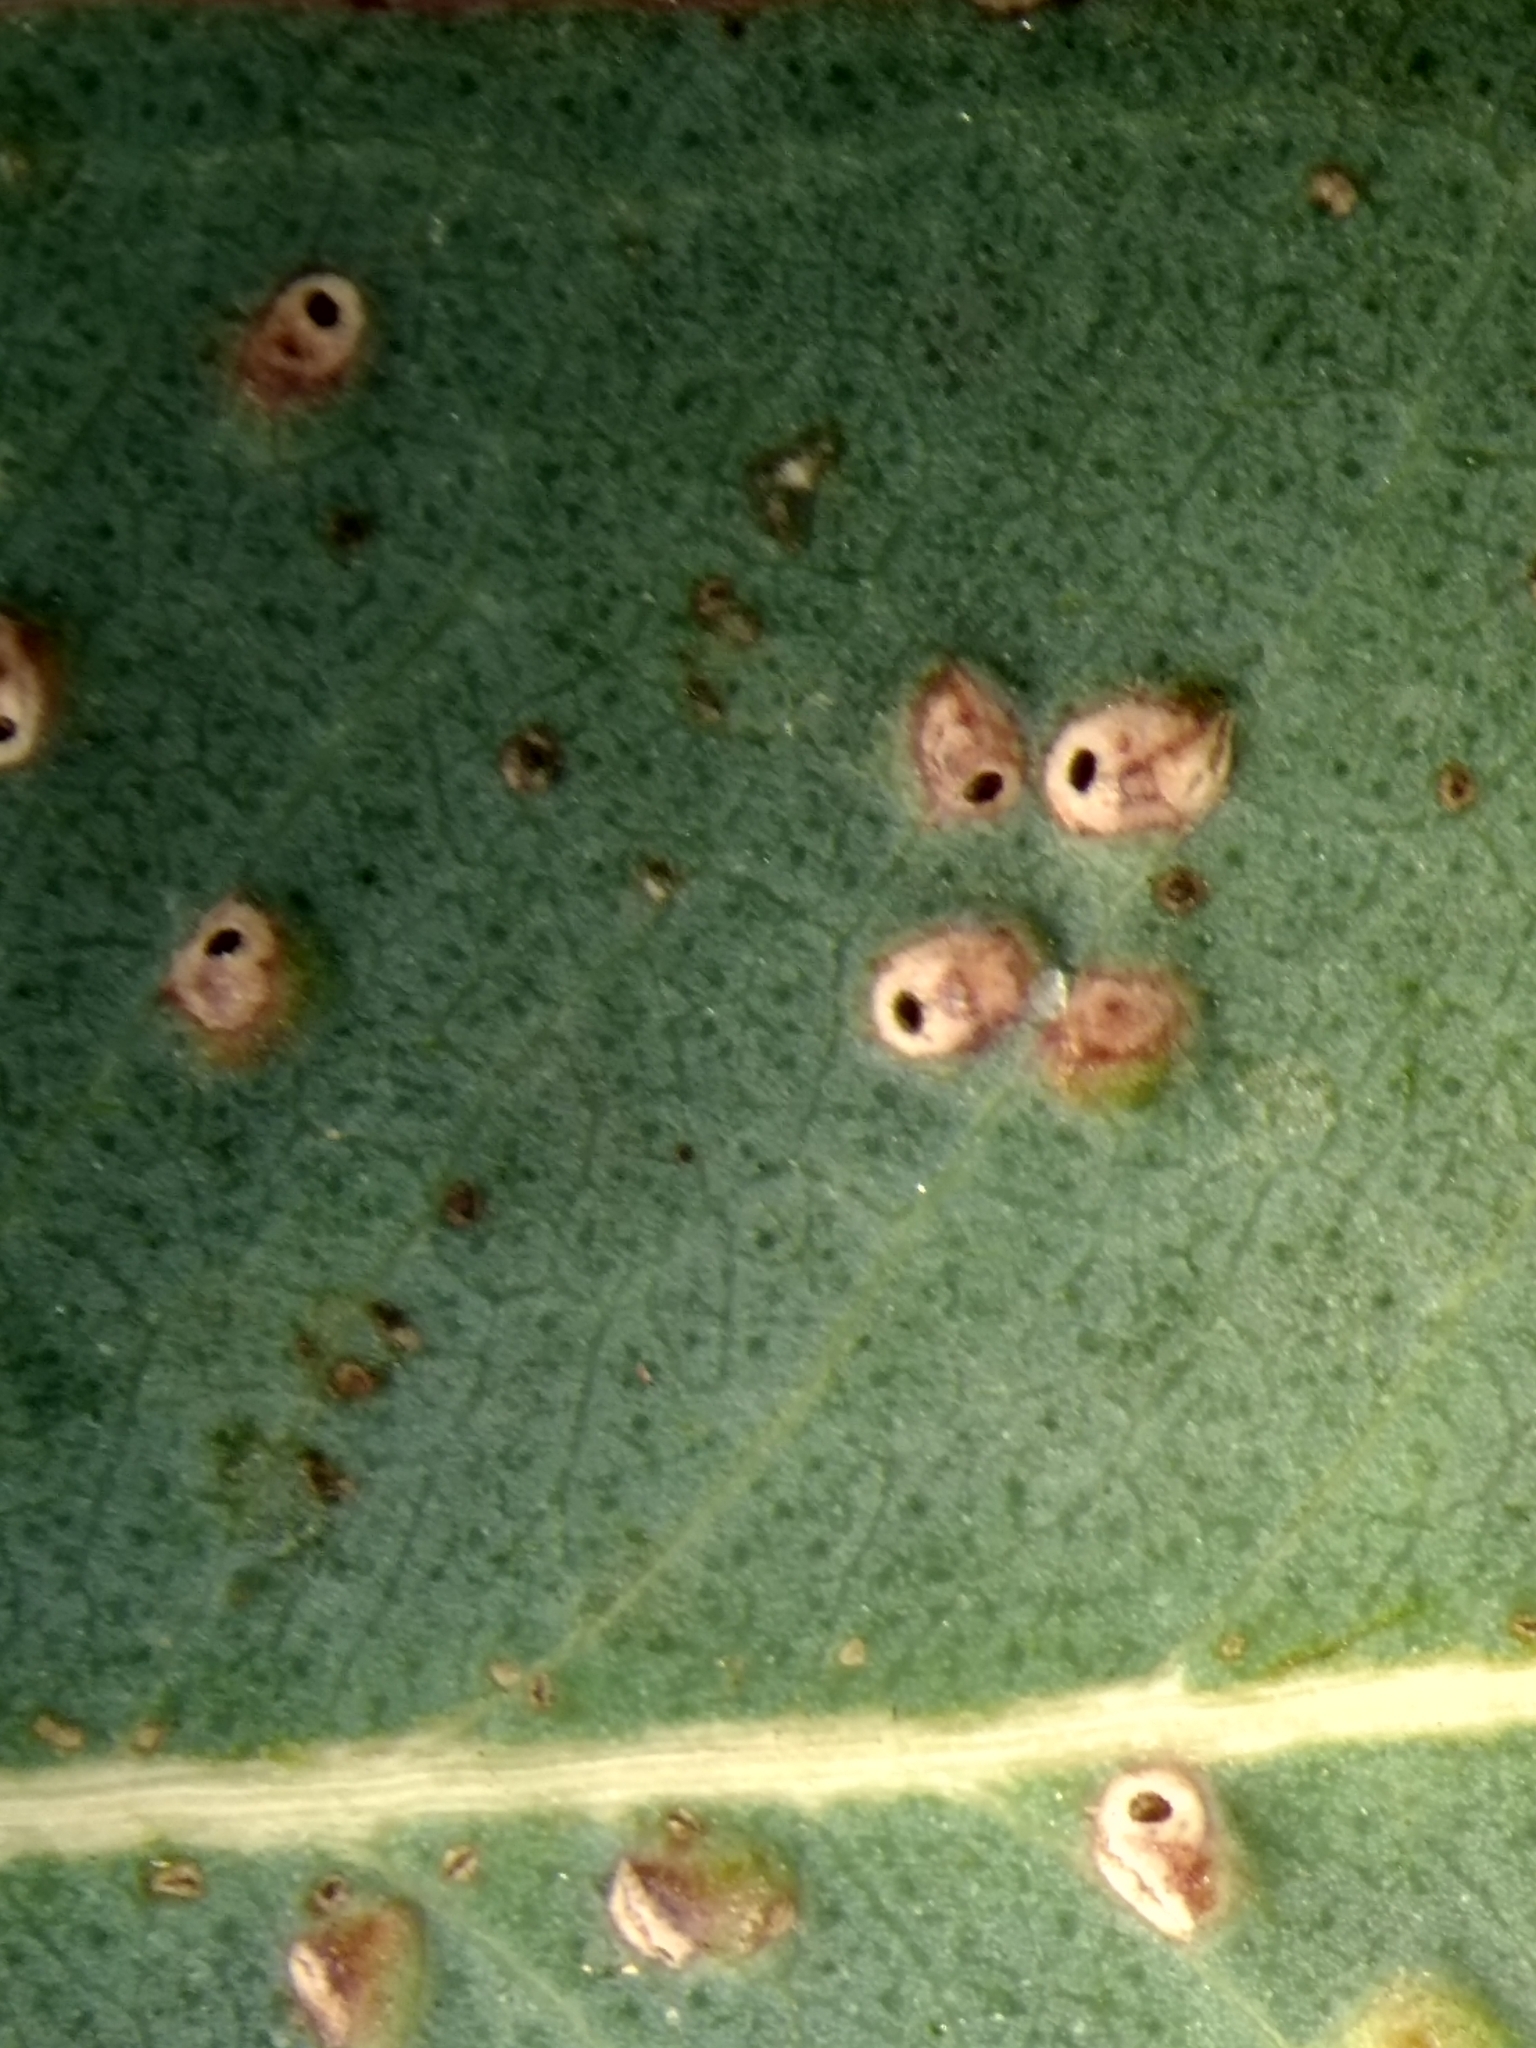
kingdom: Animalia
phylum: Arthropoda
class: Insecta
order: Hymenoptera
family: Eulophidae
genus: Ophelimus
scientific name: Ophelimus maskelli
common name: Gall wasp
